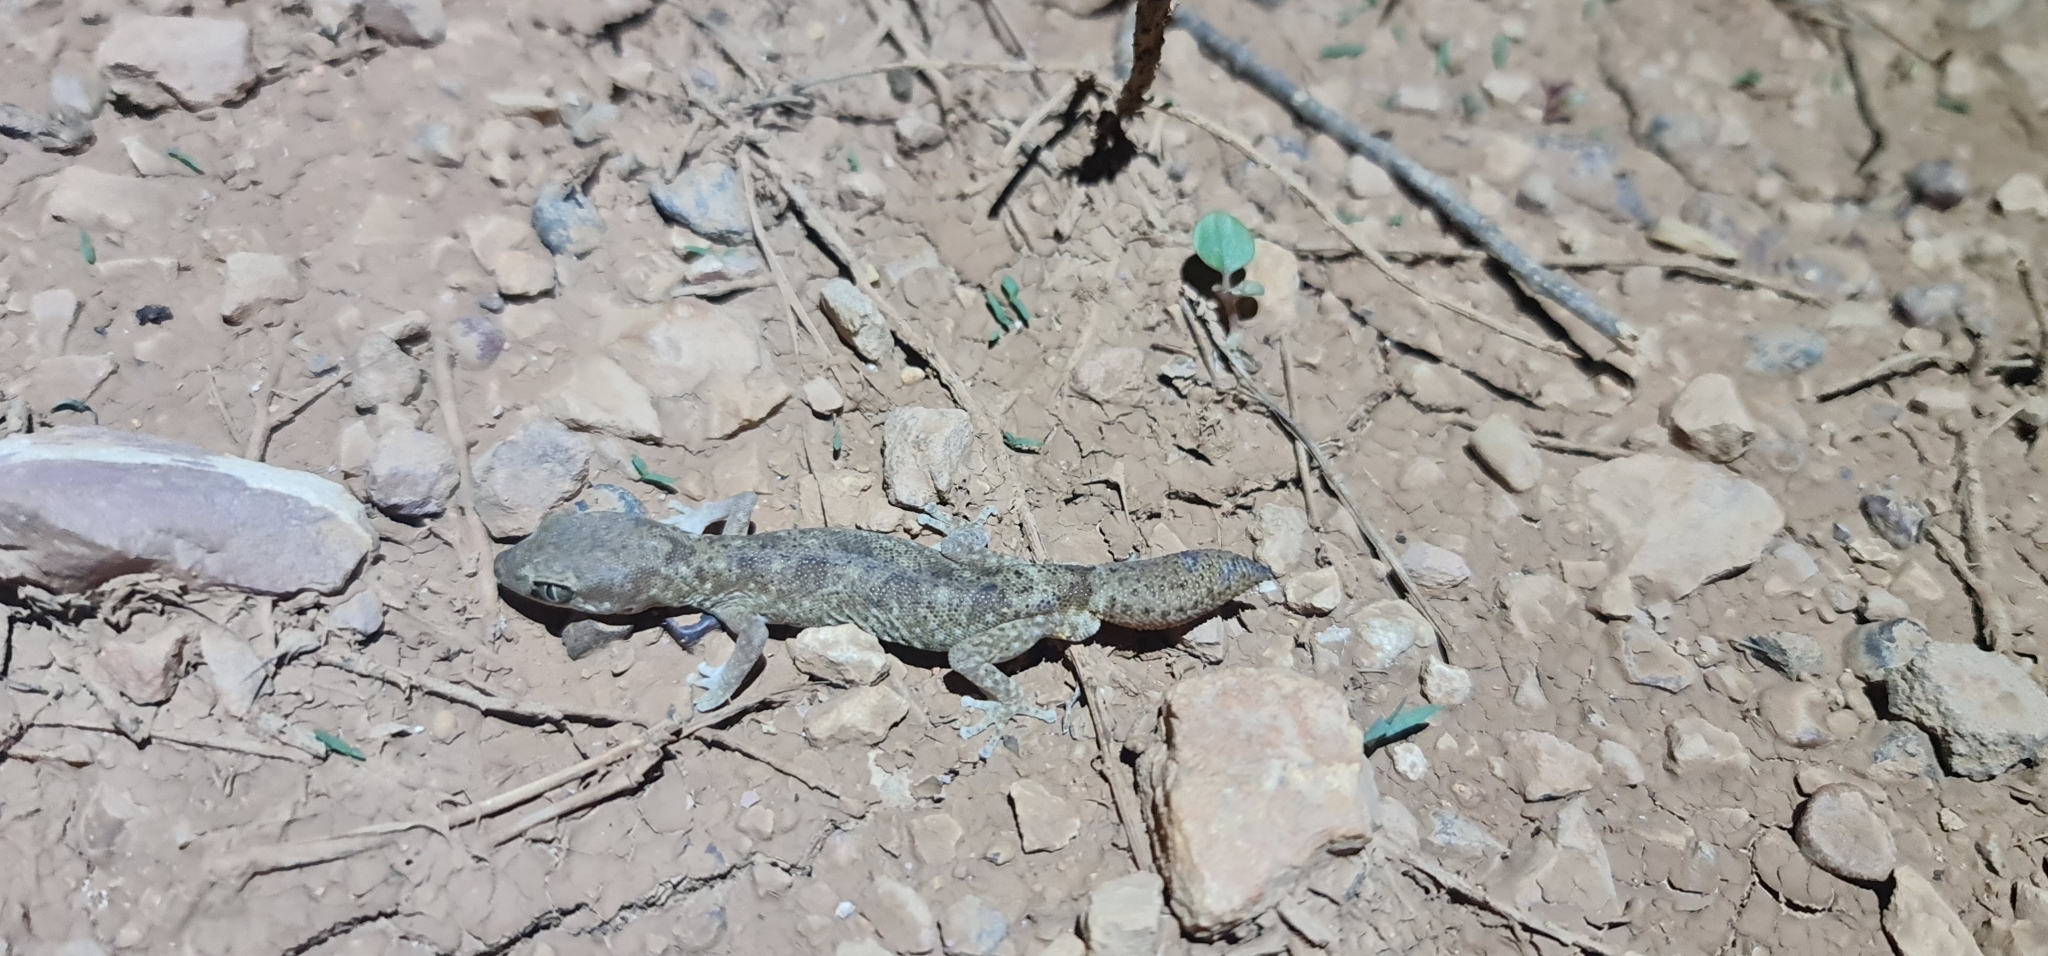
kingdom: Animalia
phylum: Chordata
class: Squamata
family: Diplodactylidae
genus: Diplodactylus
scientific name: Diplodactylus tessellatus
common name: Tesselated gecko
